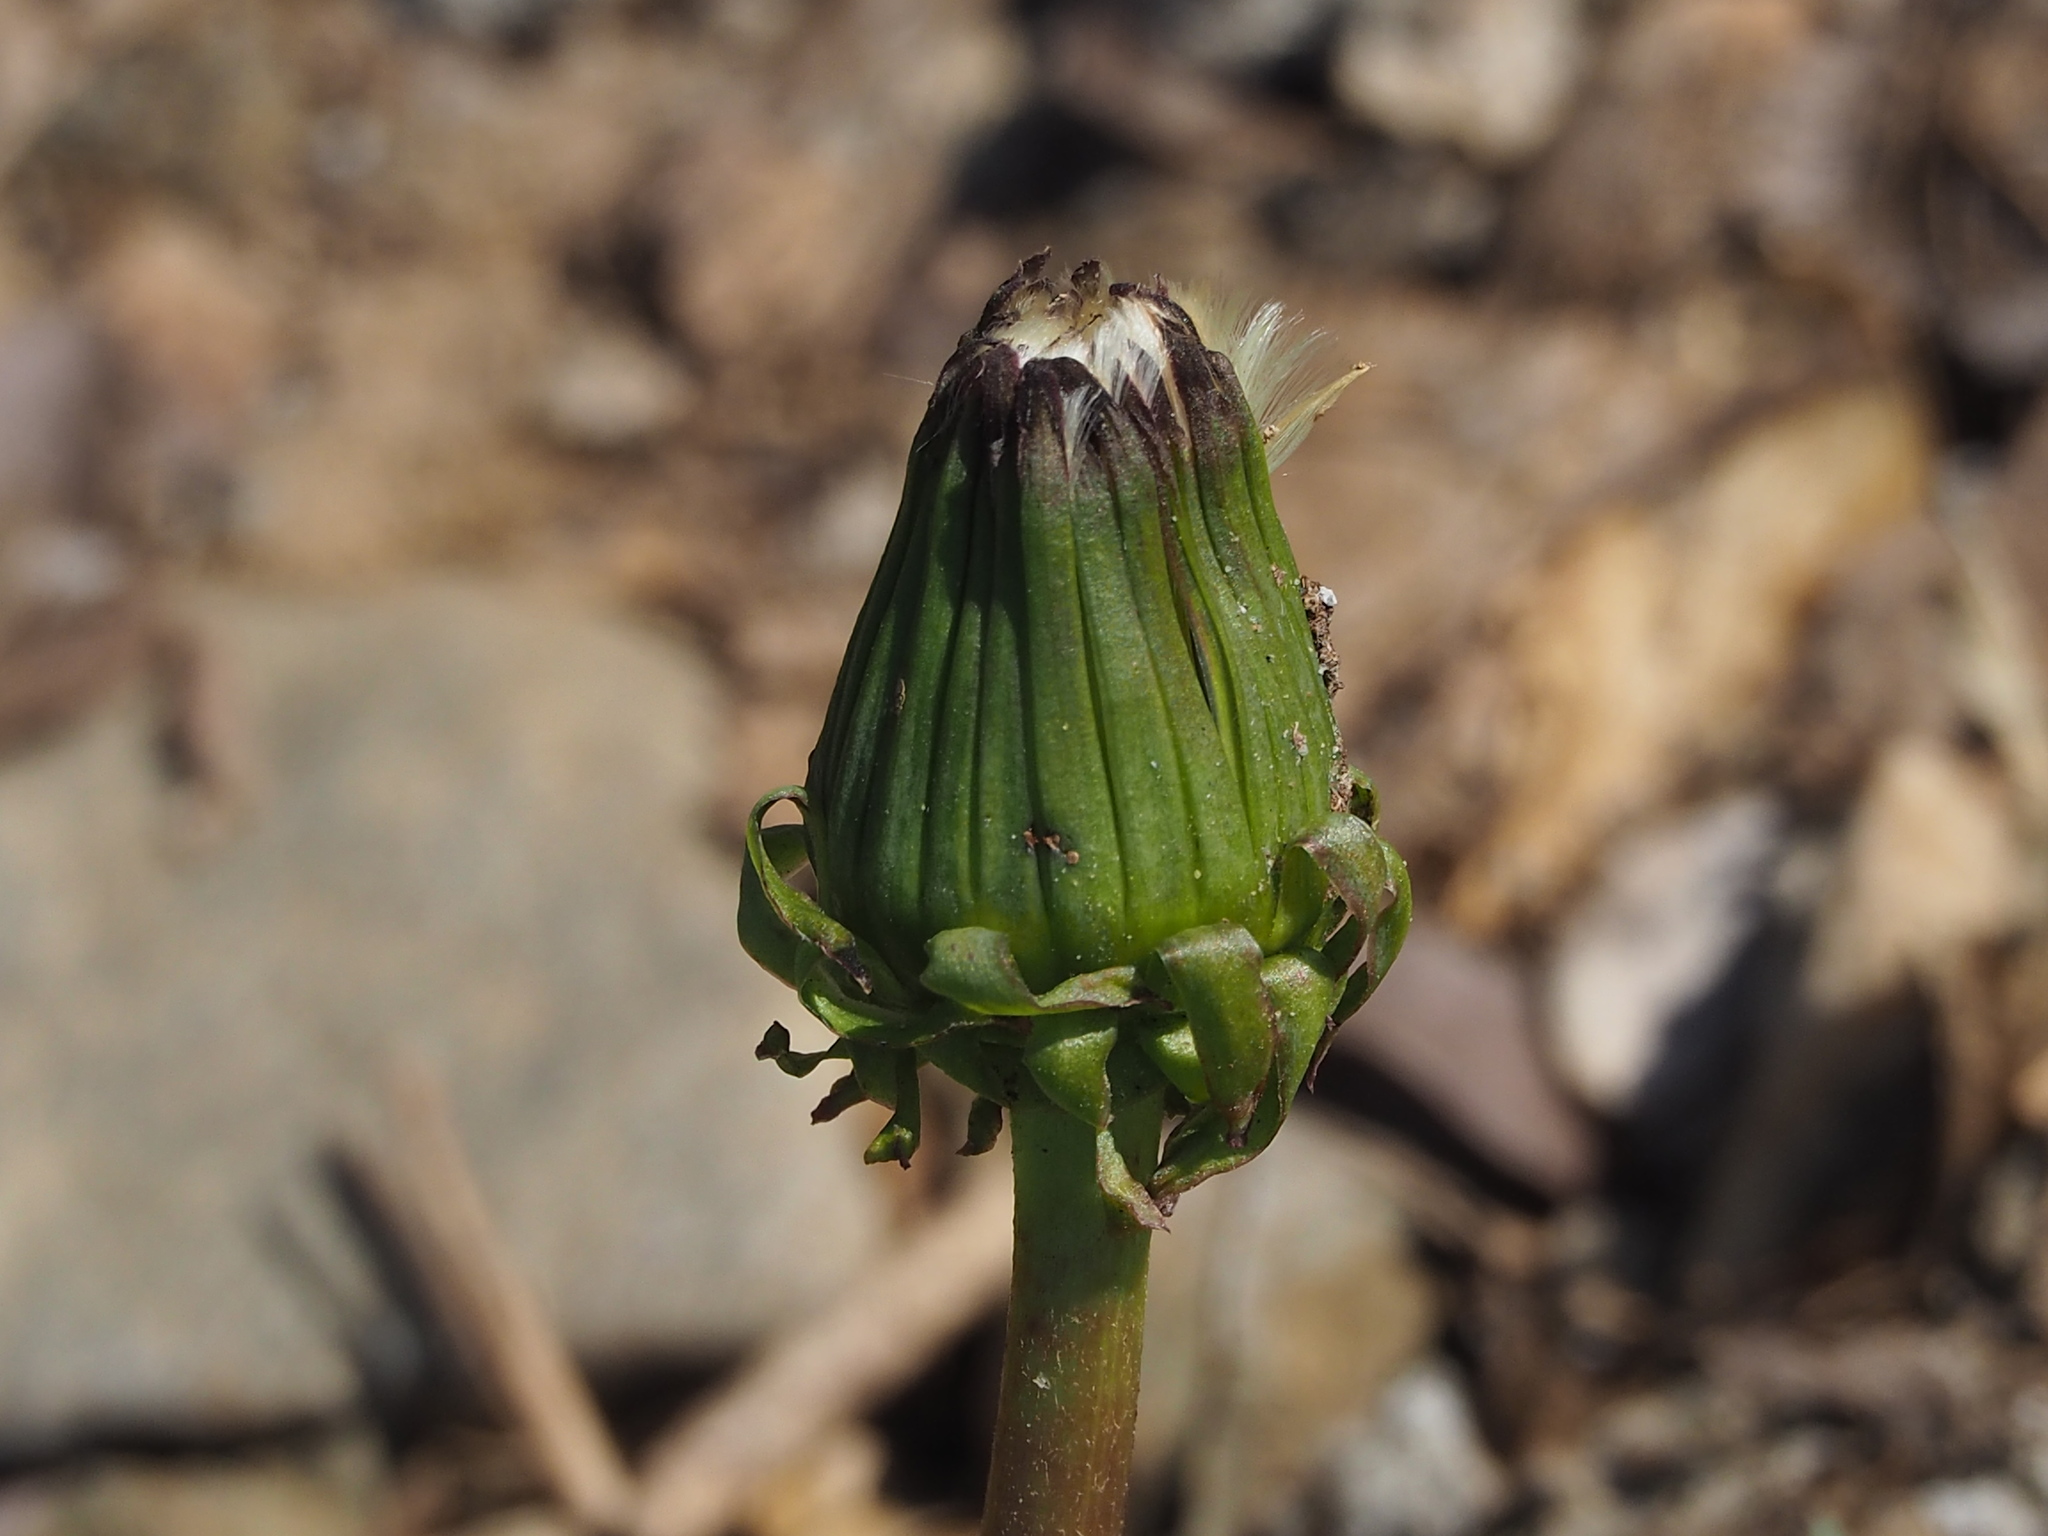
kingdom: Plantae
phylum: Tracheophyta
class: Magnoliopsida
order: Asterales
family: Asteraceae
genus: Taraxacum
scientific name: Taraxacum officinale
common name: Common dandelion
